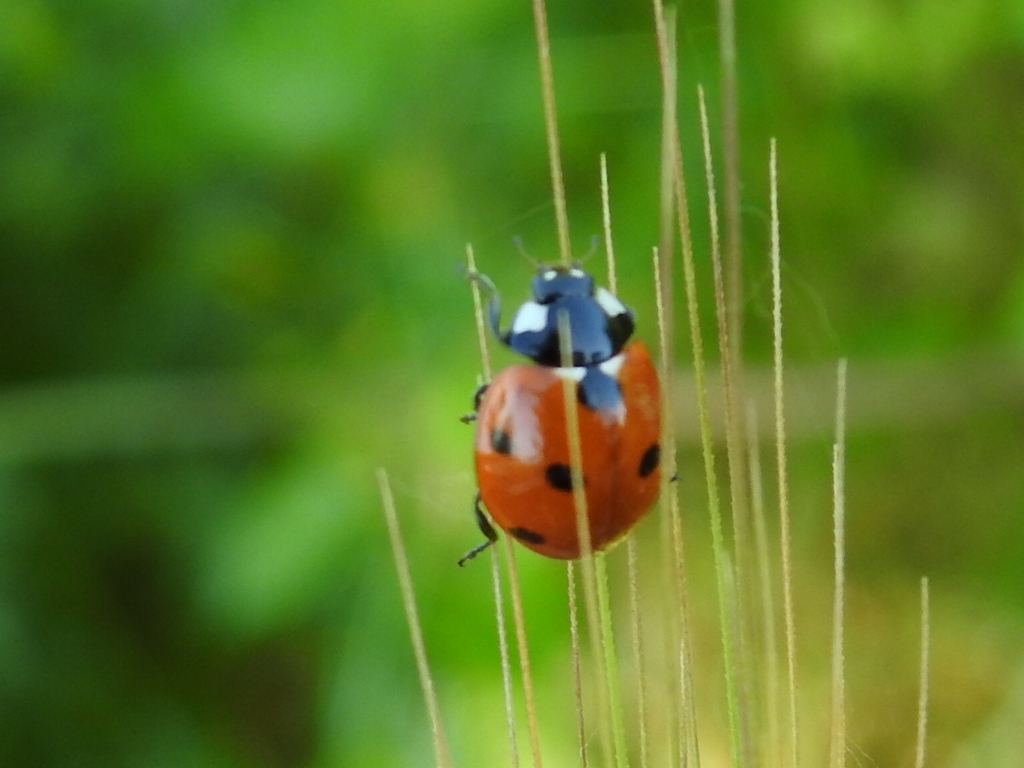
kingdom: Animalia
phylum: Arthropoda
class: Insecta
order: Coleoptera
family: Coccinellidae
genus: Coccinella
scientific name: Coccinella septempunctata
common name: Sevenspotted lady beetle
